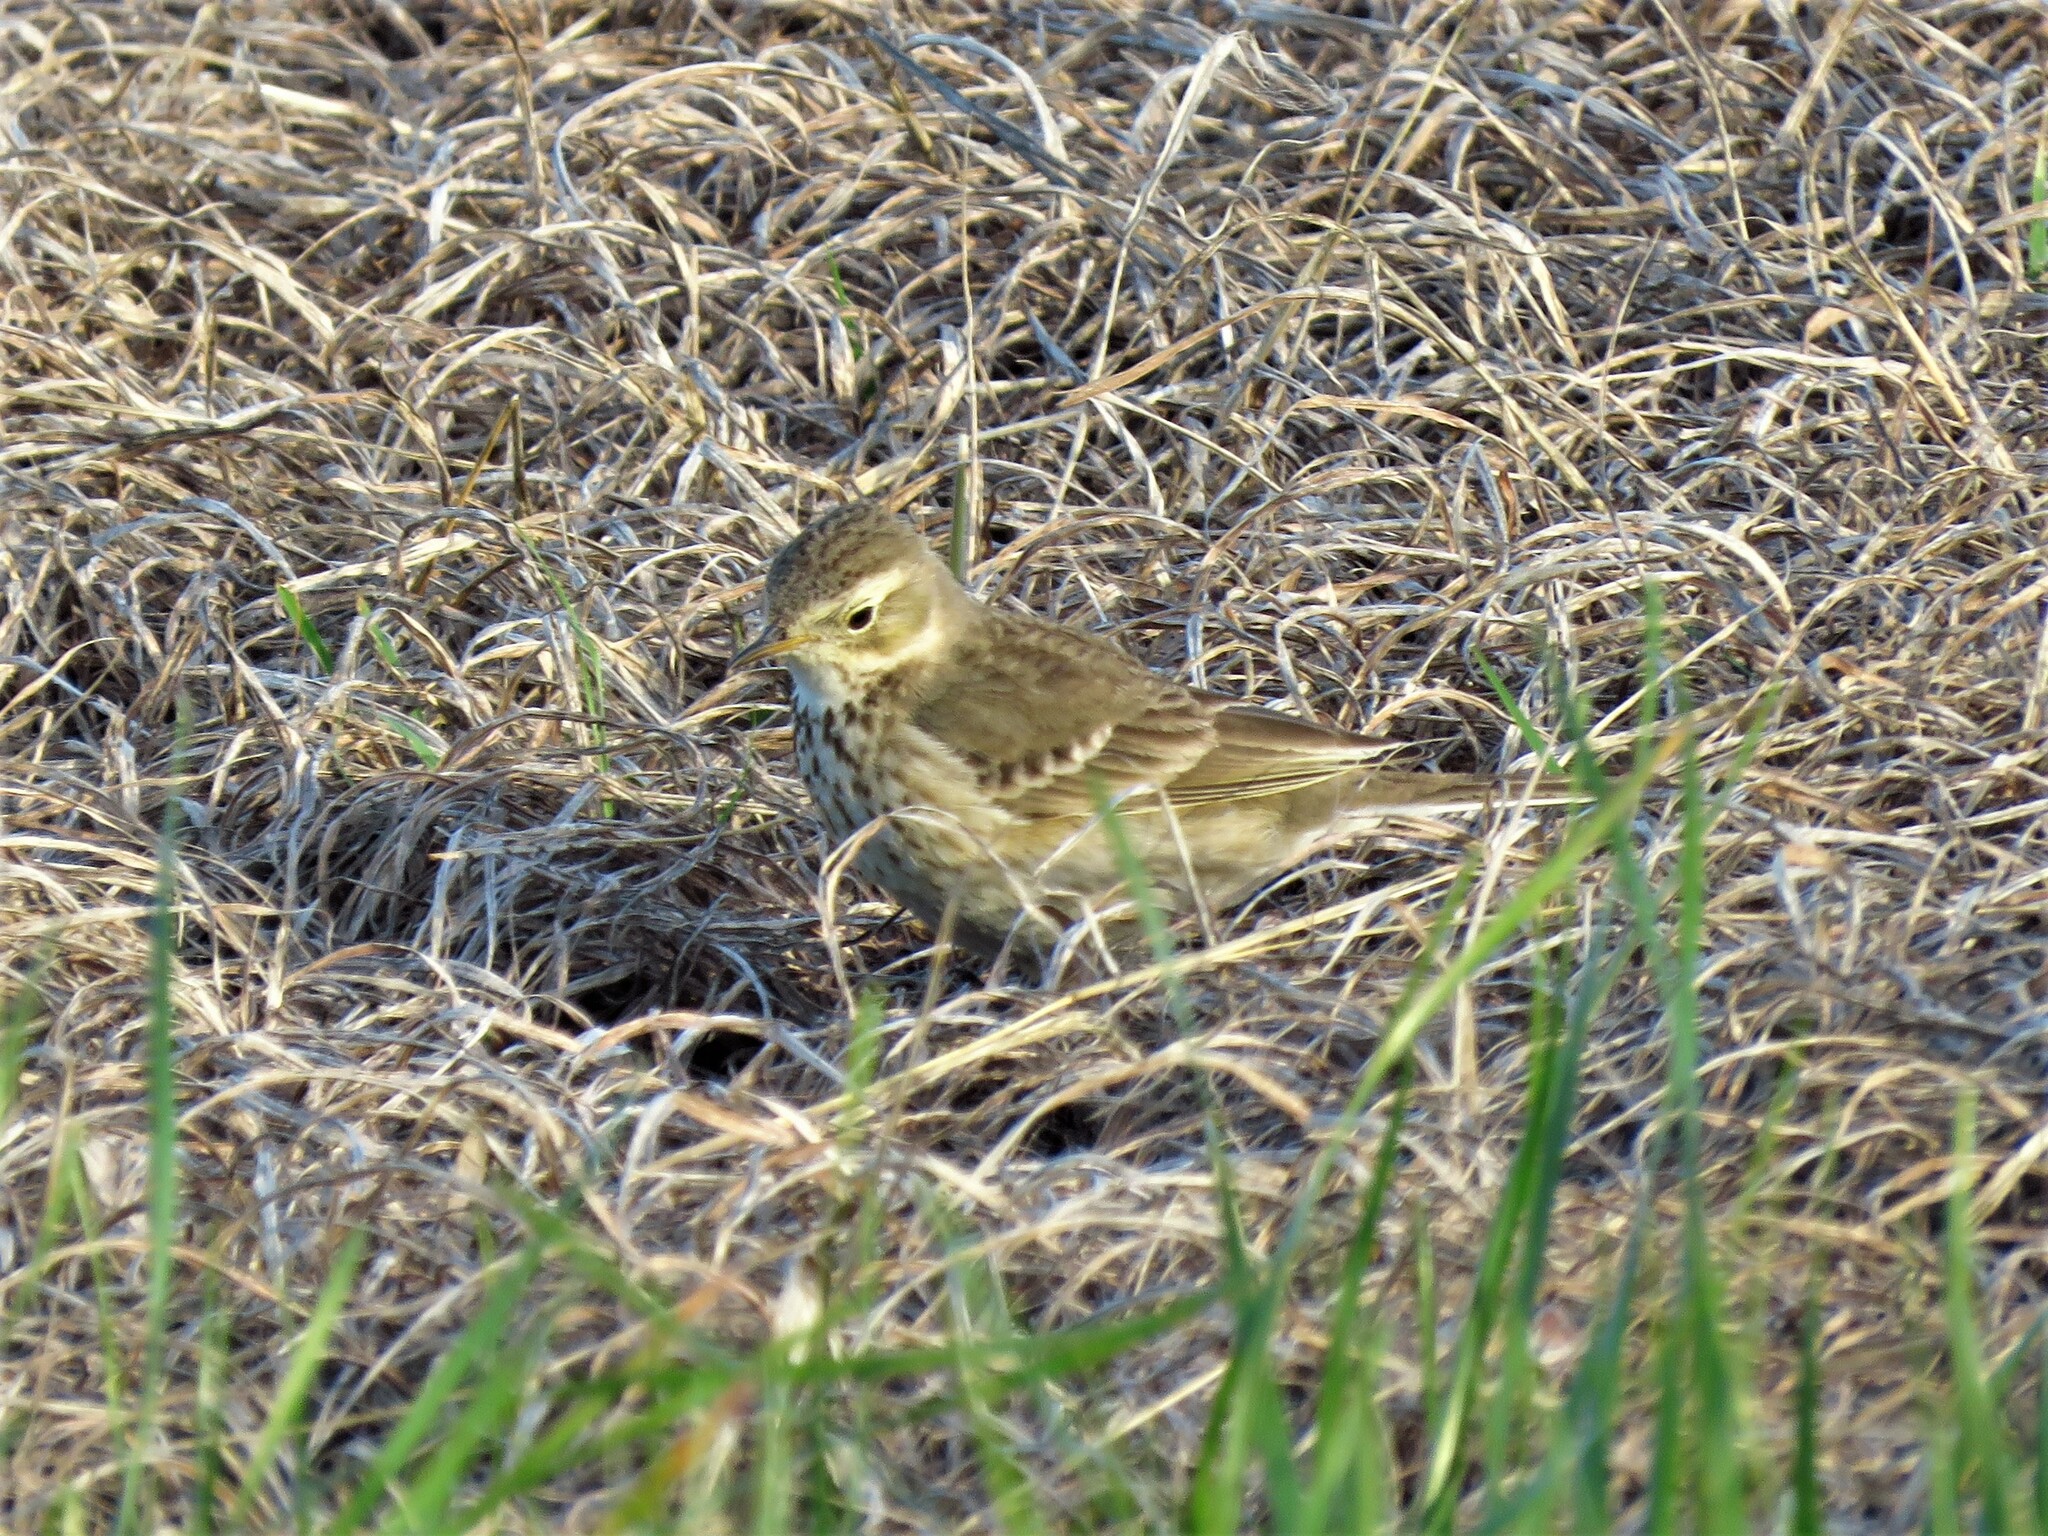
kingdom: Animalia
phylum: Chordata
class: Aves
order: Passeriformes
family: Motacillidae
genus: Anthus
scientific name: Anthus rubescens
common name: Buff-bellied pipit
